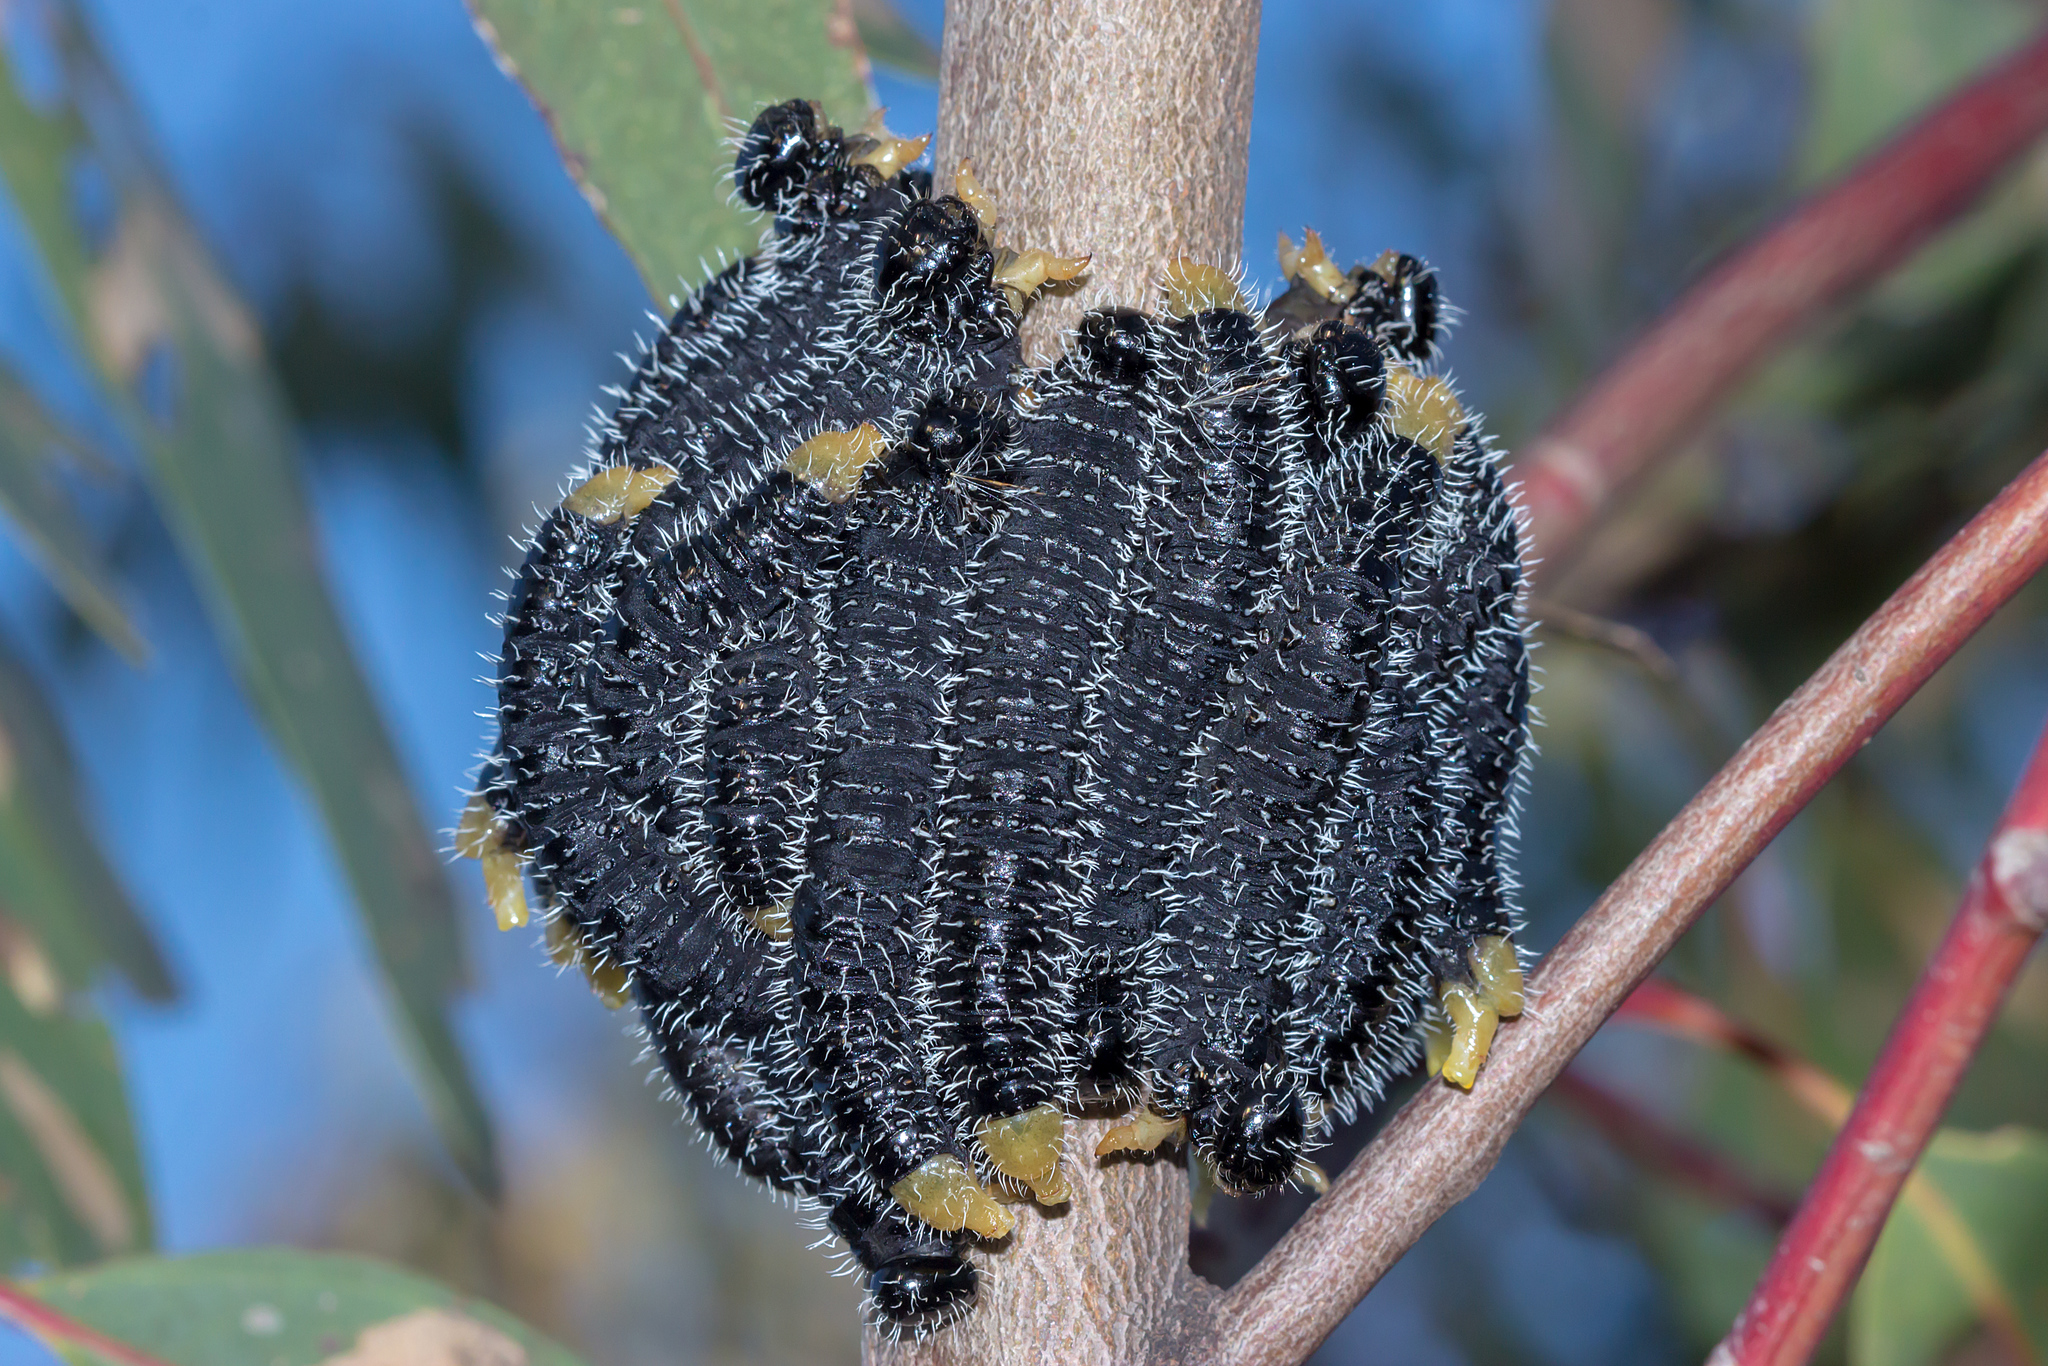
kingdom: Animalia
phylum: Arthropoda
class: Insecta
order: Hymenoptera
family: Pergidae
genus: Perga
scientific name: Perga affinis
